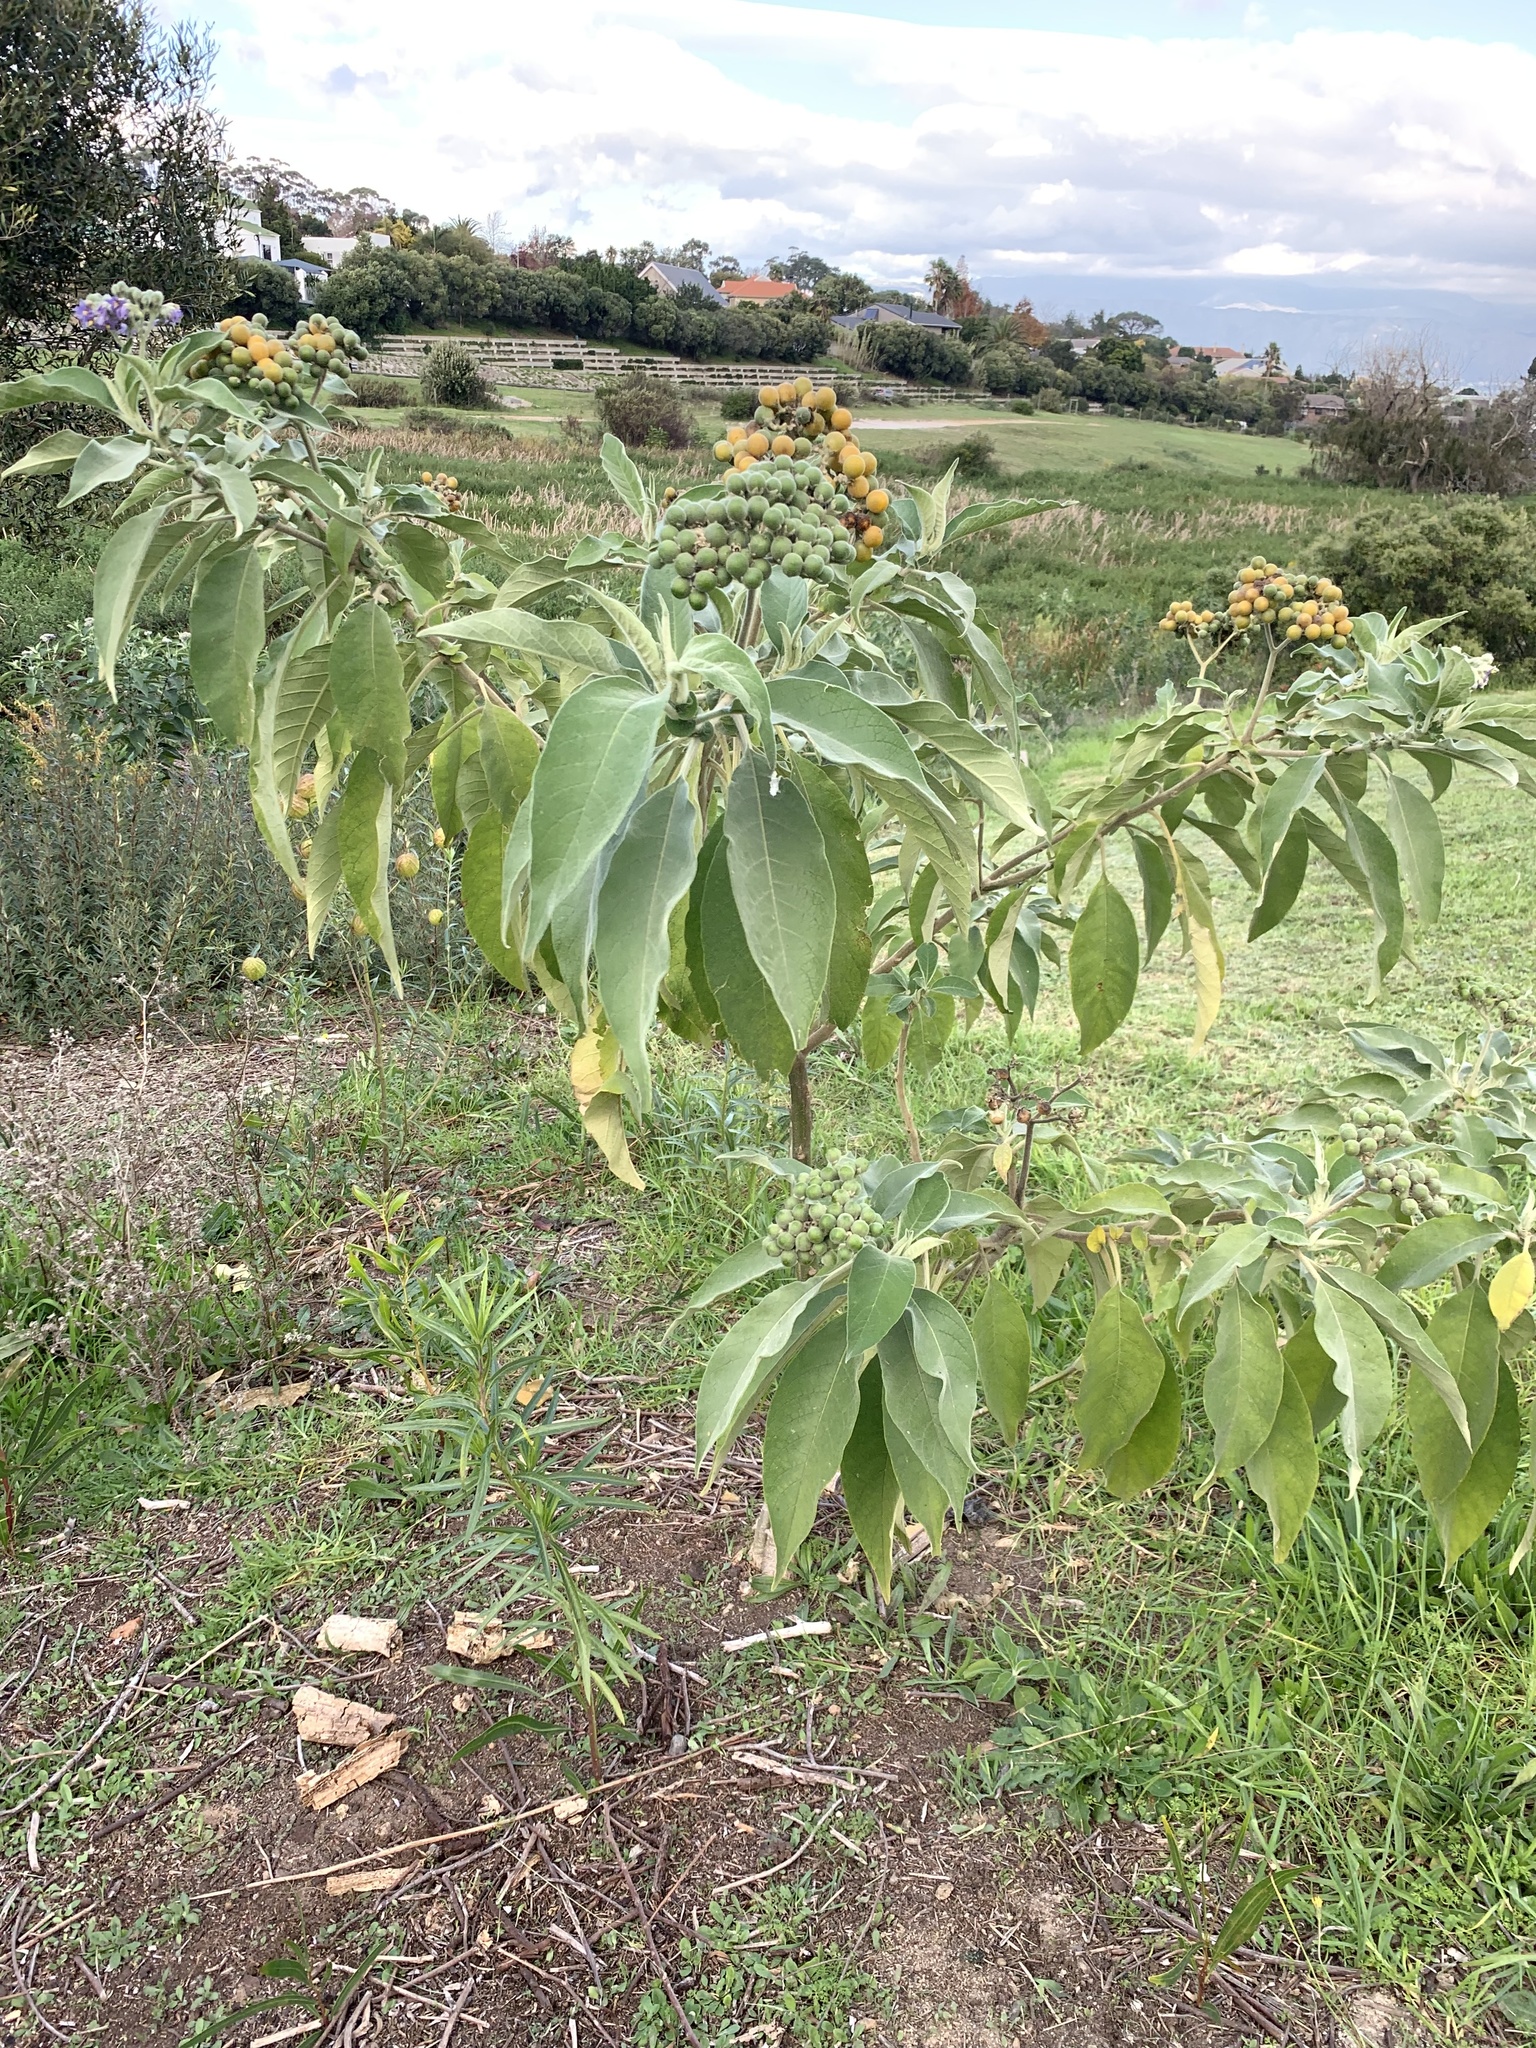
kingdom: Plantae
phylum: Tracheophyta
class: Magnoliopsida
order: Solanales
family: Solanaceae
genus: Solanum
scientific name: Solanum mauritianum
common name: Earleaf nightshade
